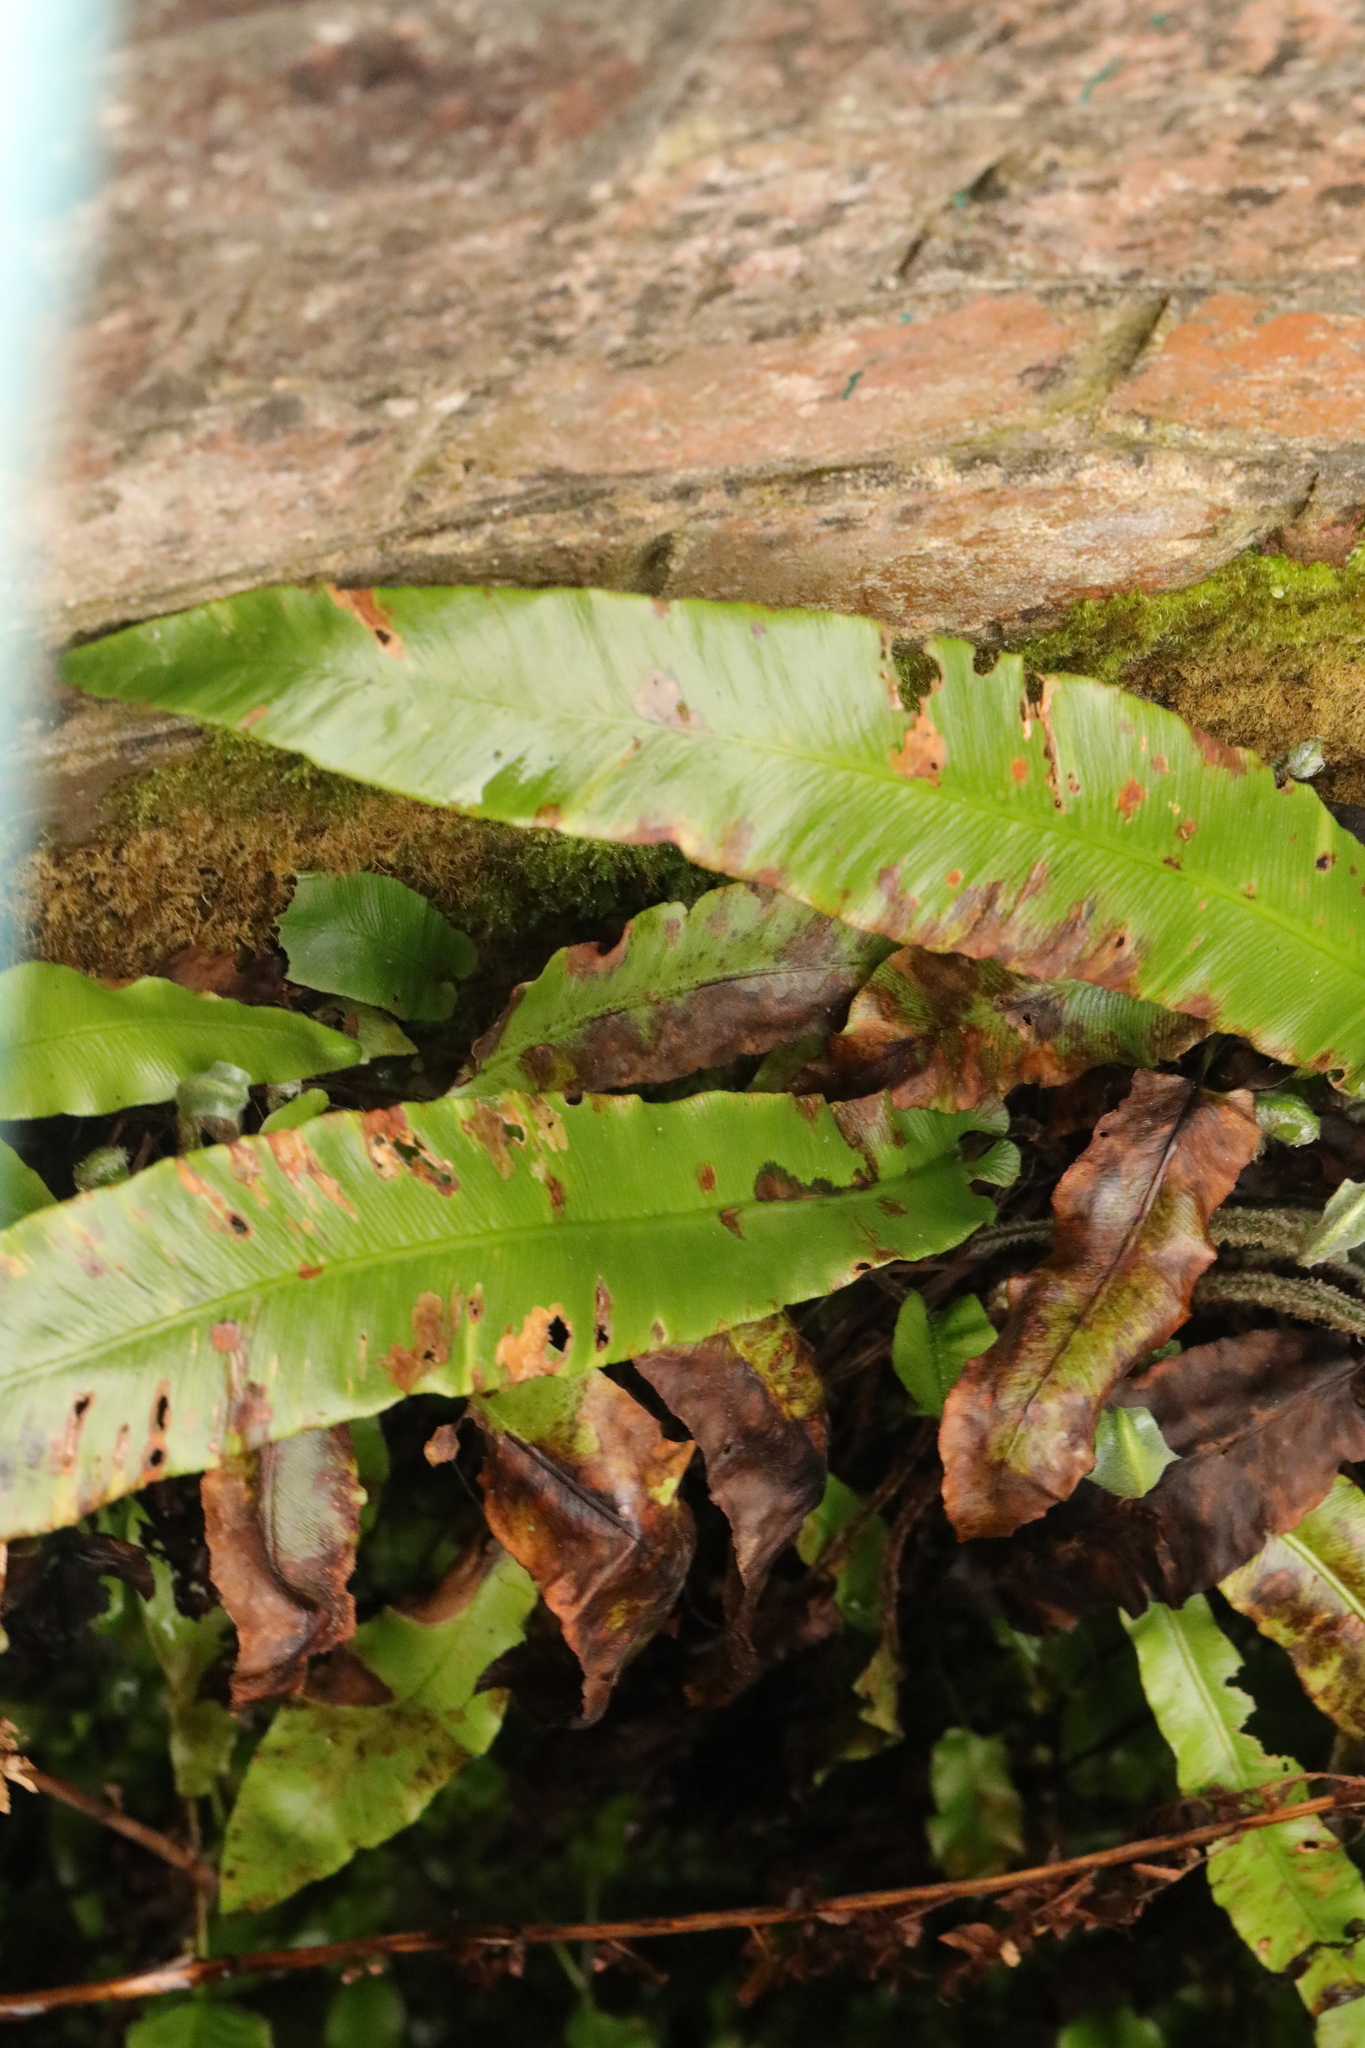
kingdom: Plantae
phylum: Tracheophyta
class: Polypodiopsida
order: Polypodiales
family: Aspleniaceae
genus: Asplenium
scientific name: Asplenium scolopendrium
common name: Hart's-tongue fern
